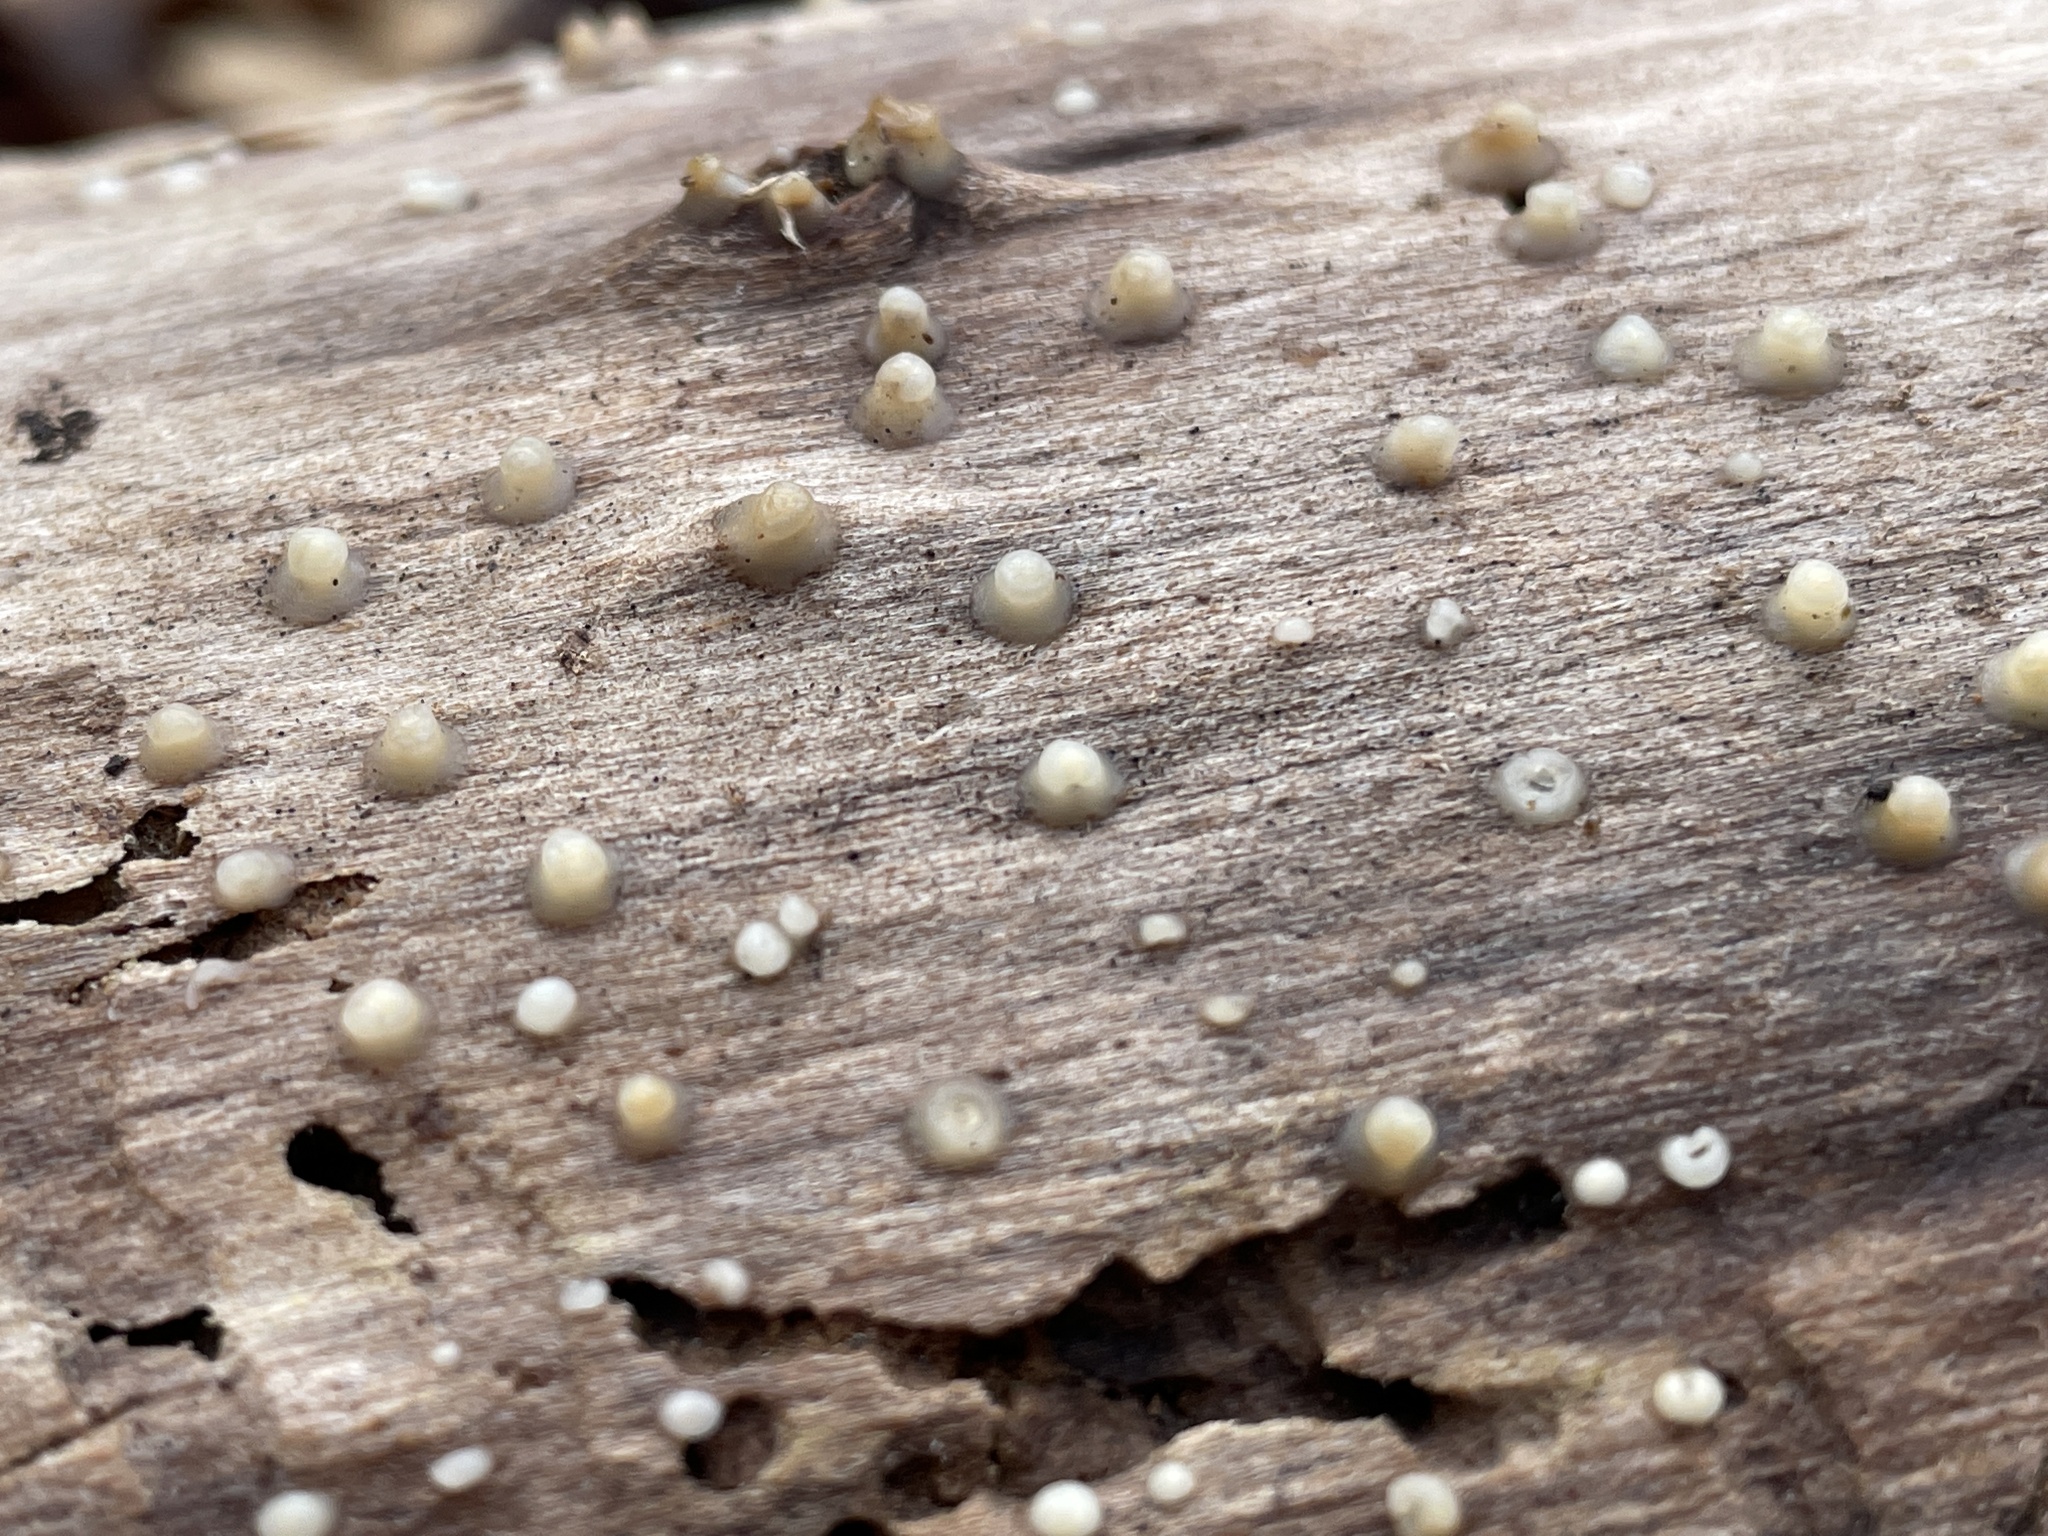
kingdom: Fungi
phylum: Basidiomycota
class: Atractiellomycetes
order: Atractiellales
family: Phleogenaceae
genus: Helicogloea
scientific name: Helicogloea compressa
